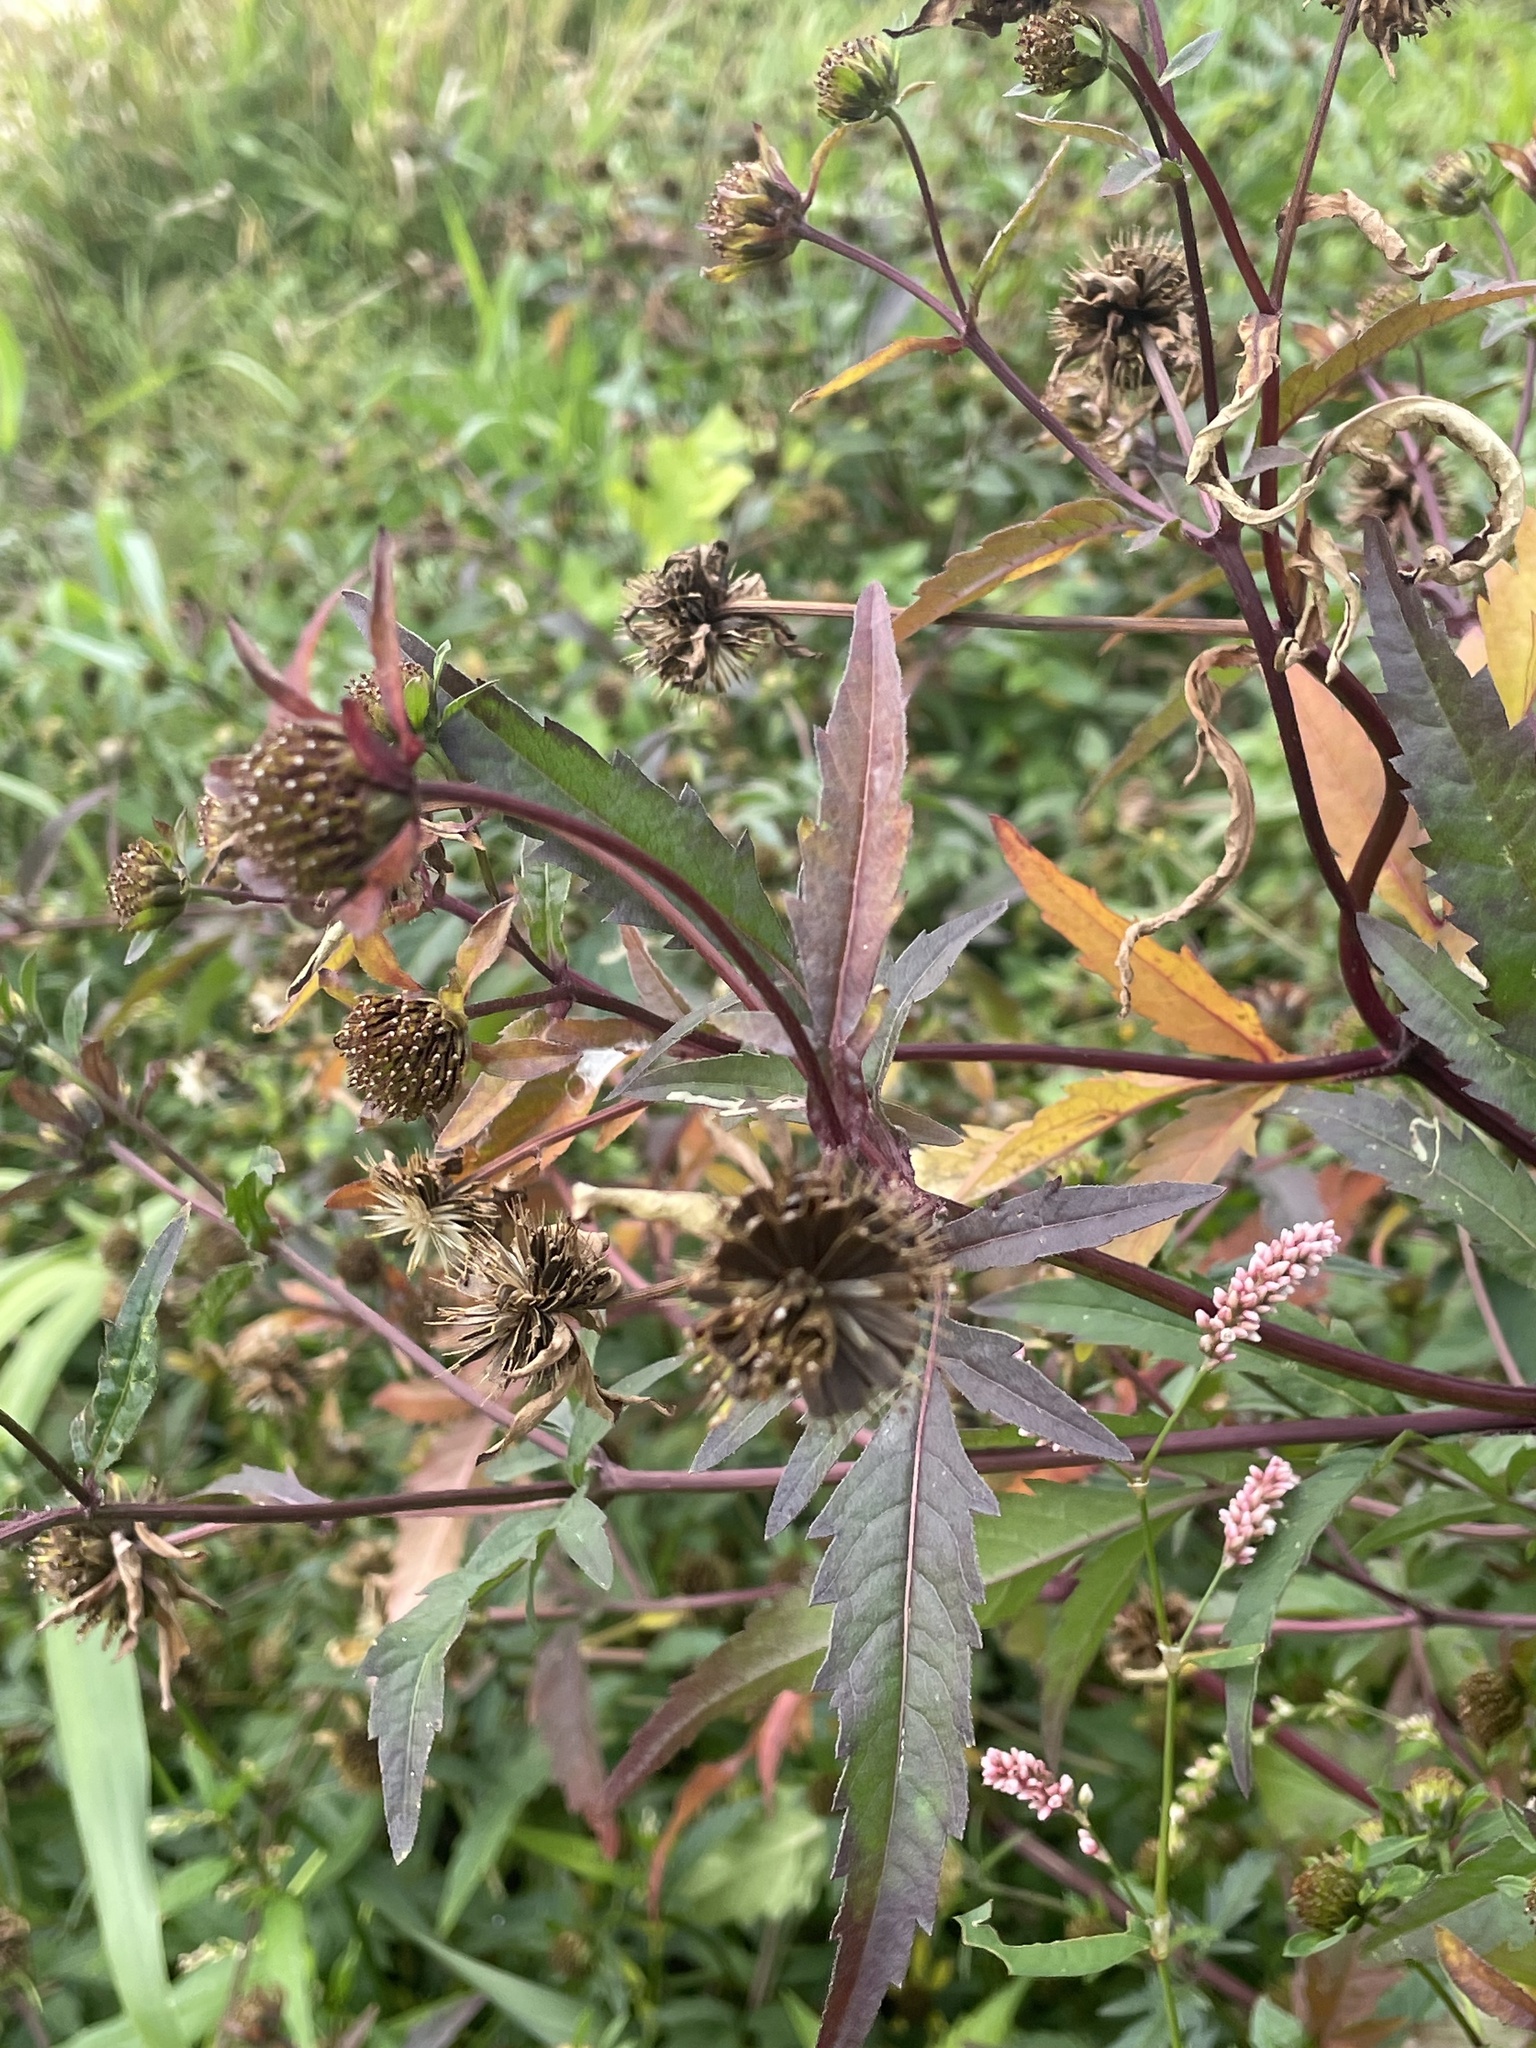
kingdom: Plantae
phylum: Tracheophyta
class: Magnoliopsida
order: Asterales
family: Asteraceae
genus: Bidens
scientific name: Bidens tripartita
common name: Trifid bur-marigold
